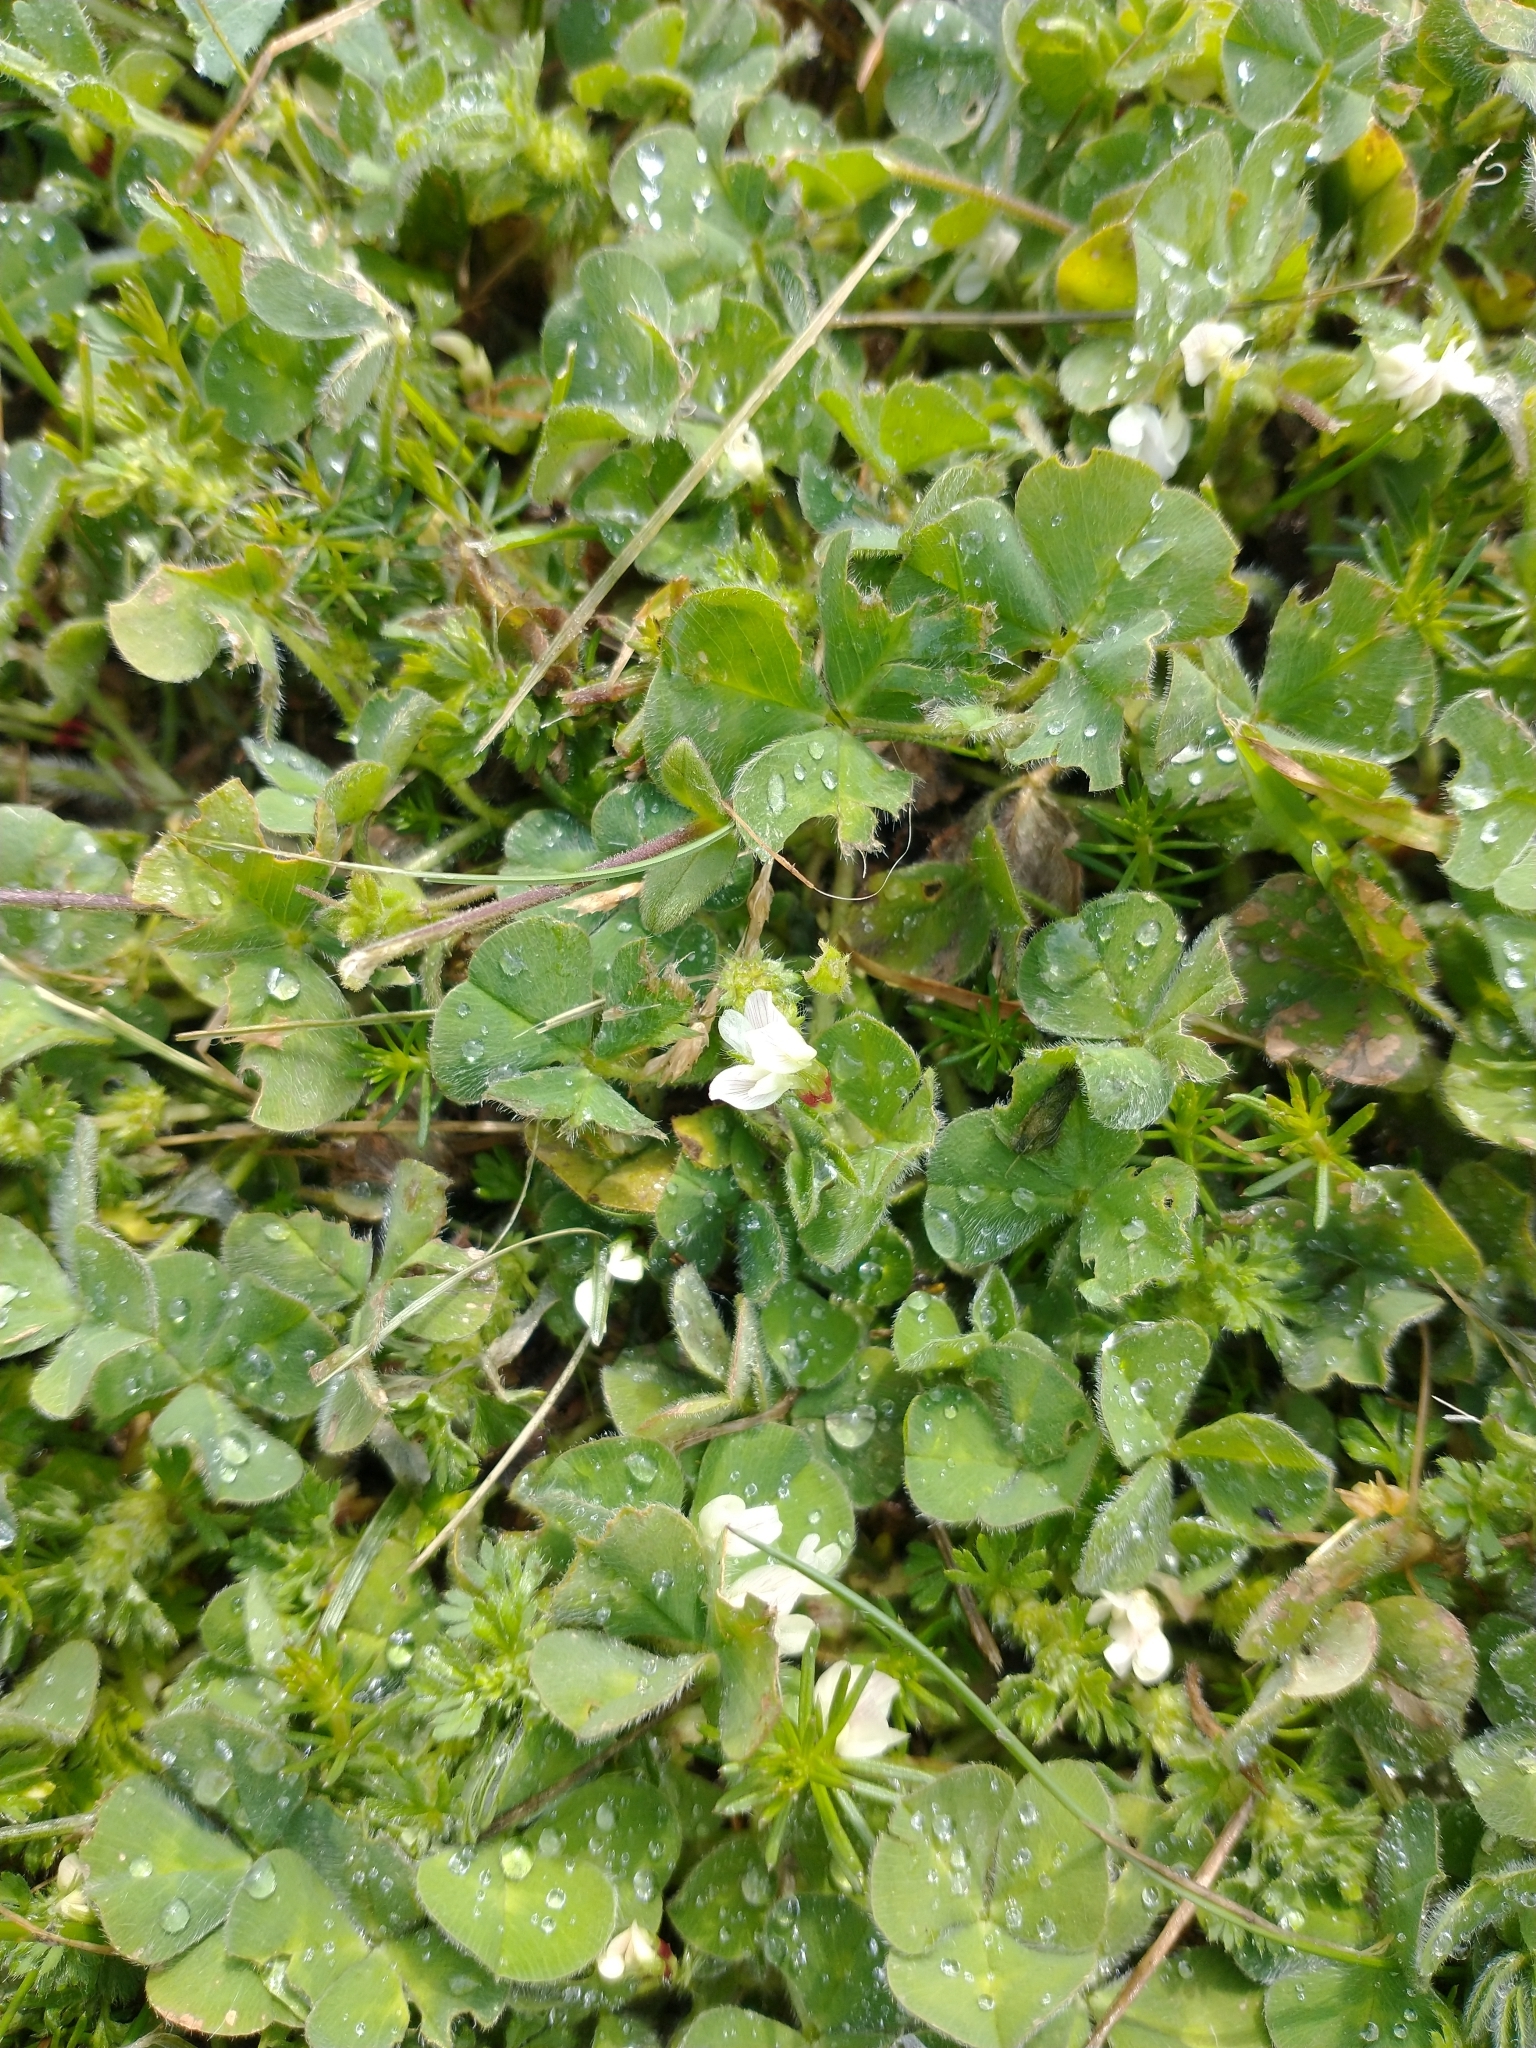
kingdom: Plantae
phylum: Tracheophyta
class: Magnoliopsida
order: Fabales
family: Fabaceae
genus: Trifolium
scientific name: Trifolium subterraneum
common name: Subterranean clover
